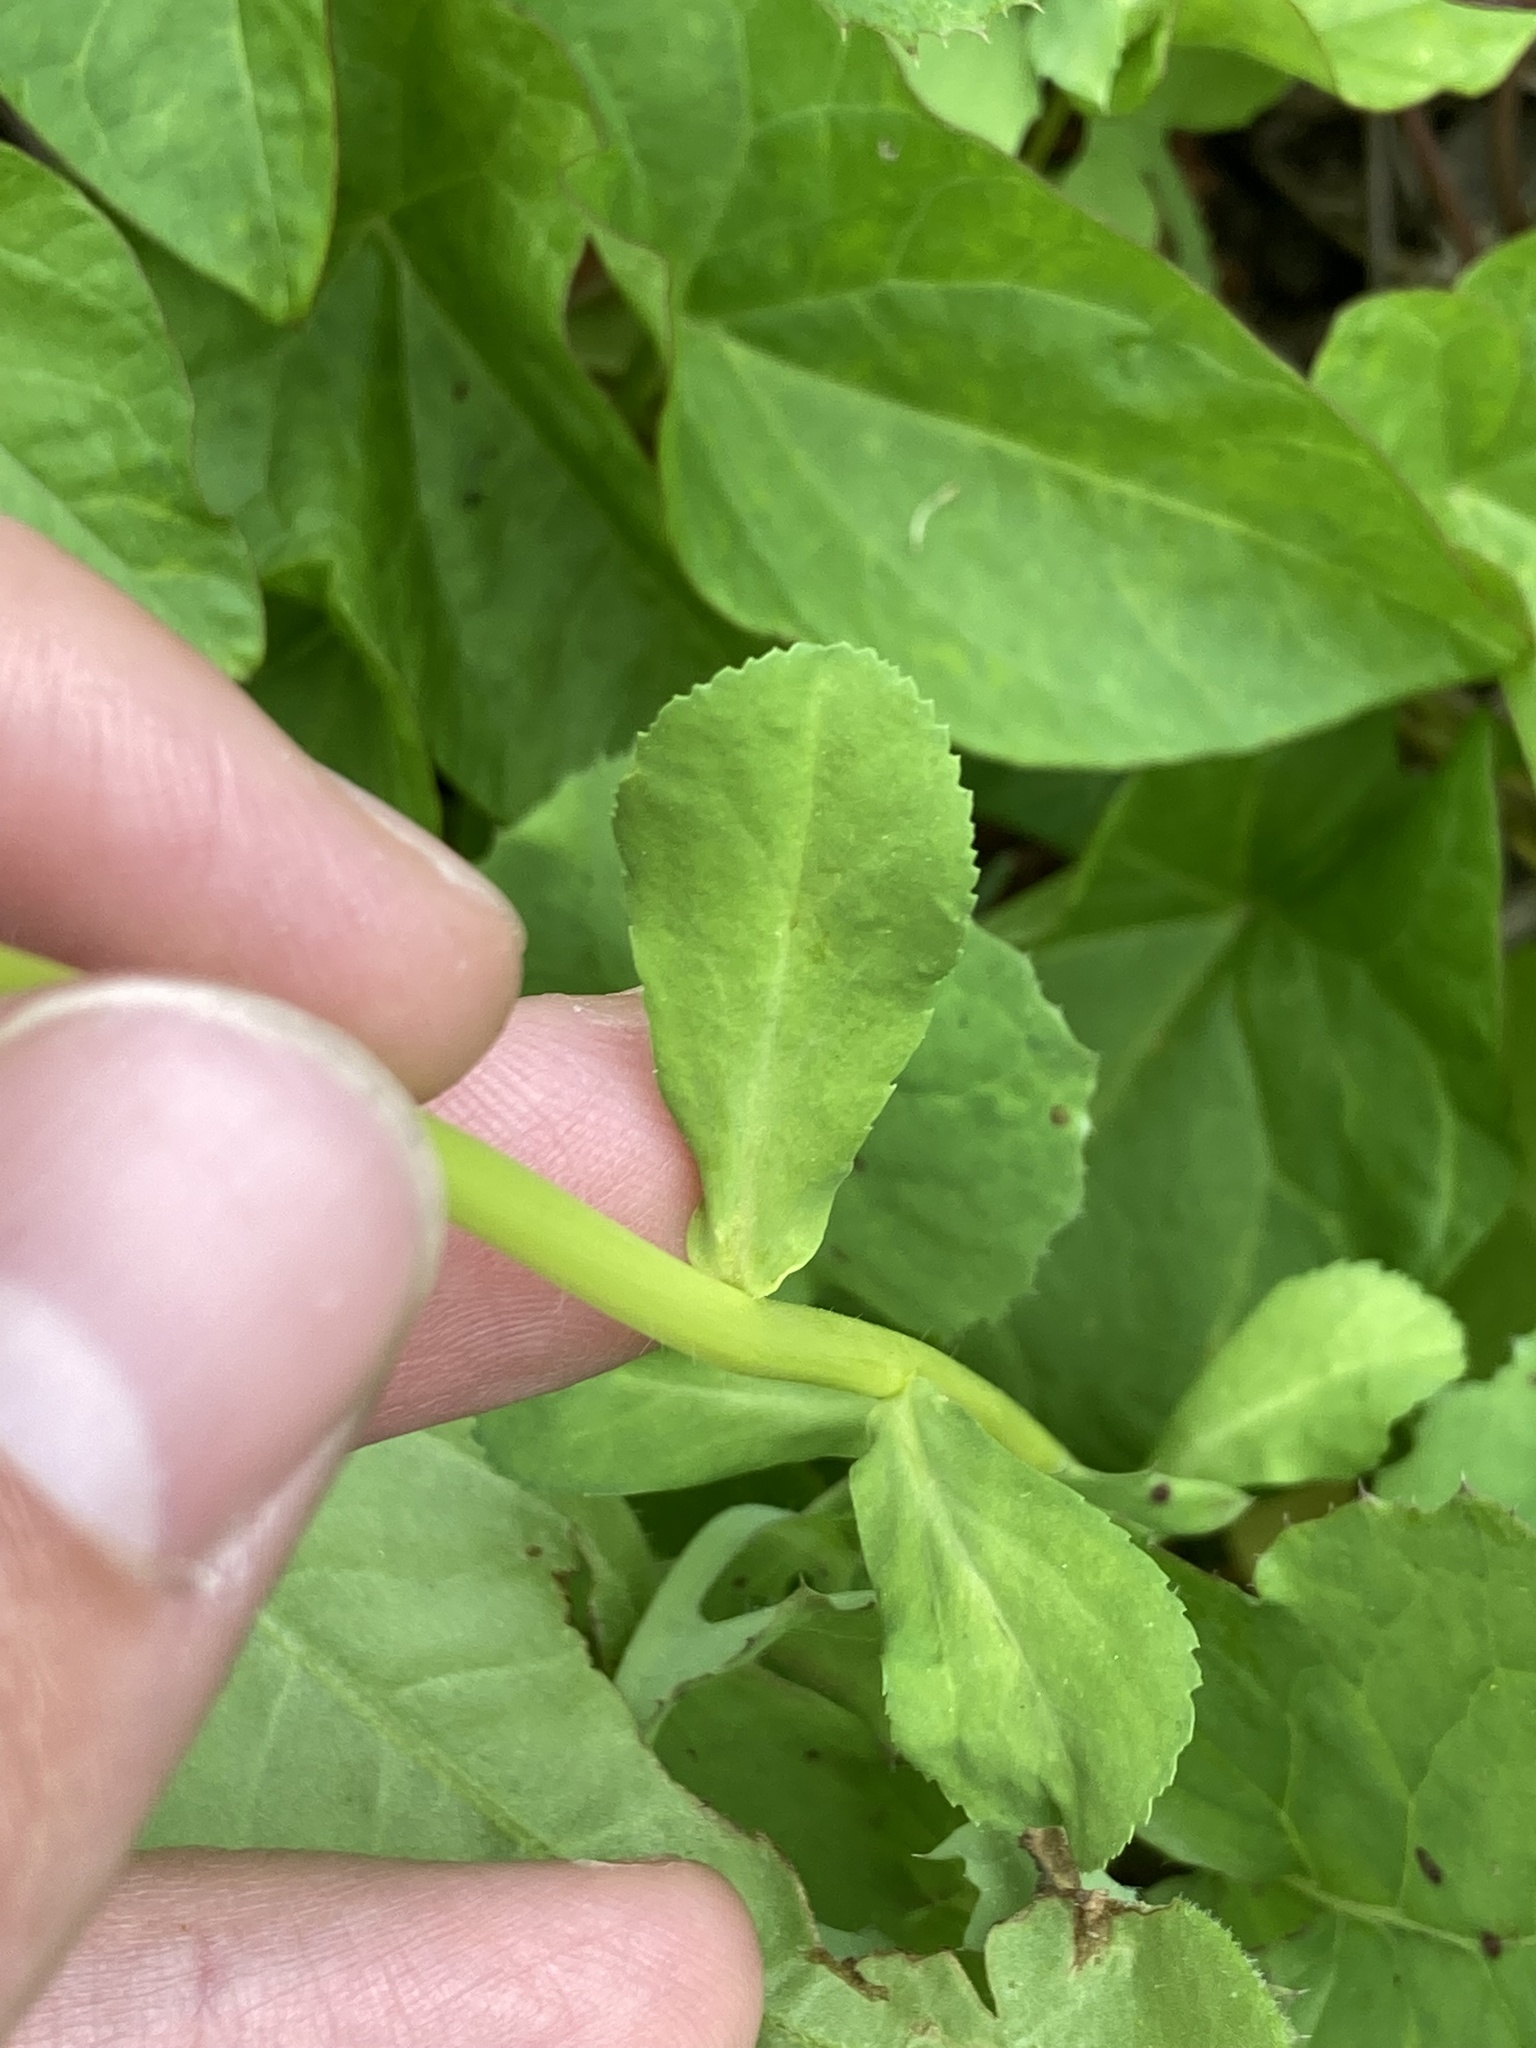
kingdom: Plantae
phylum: Tracheophyta
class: Magnoliopsida
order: Malpighiales
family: Euphorbiaceae
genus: Euphorbia
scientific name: Euphorbia helioscopia
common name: Sun spurge
